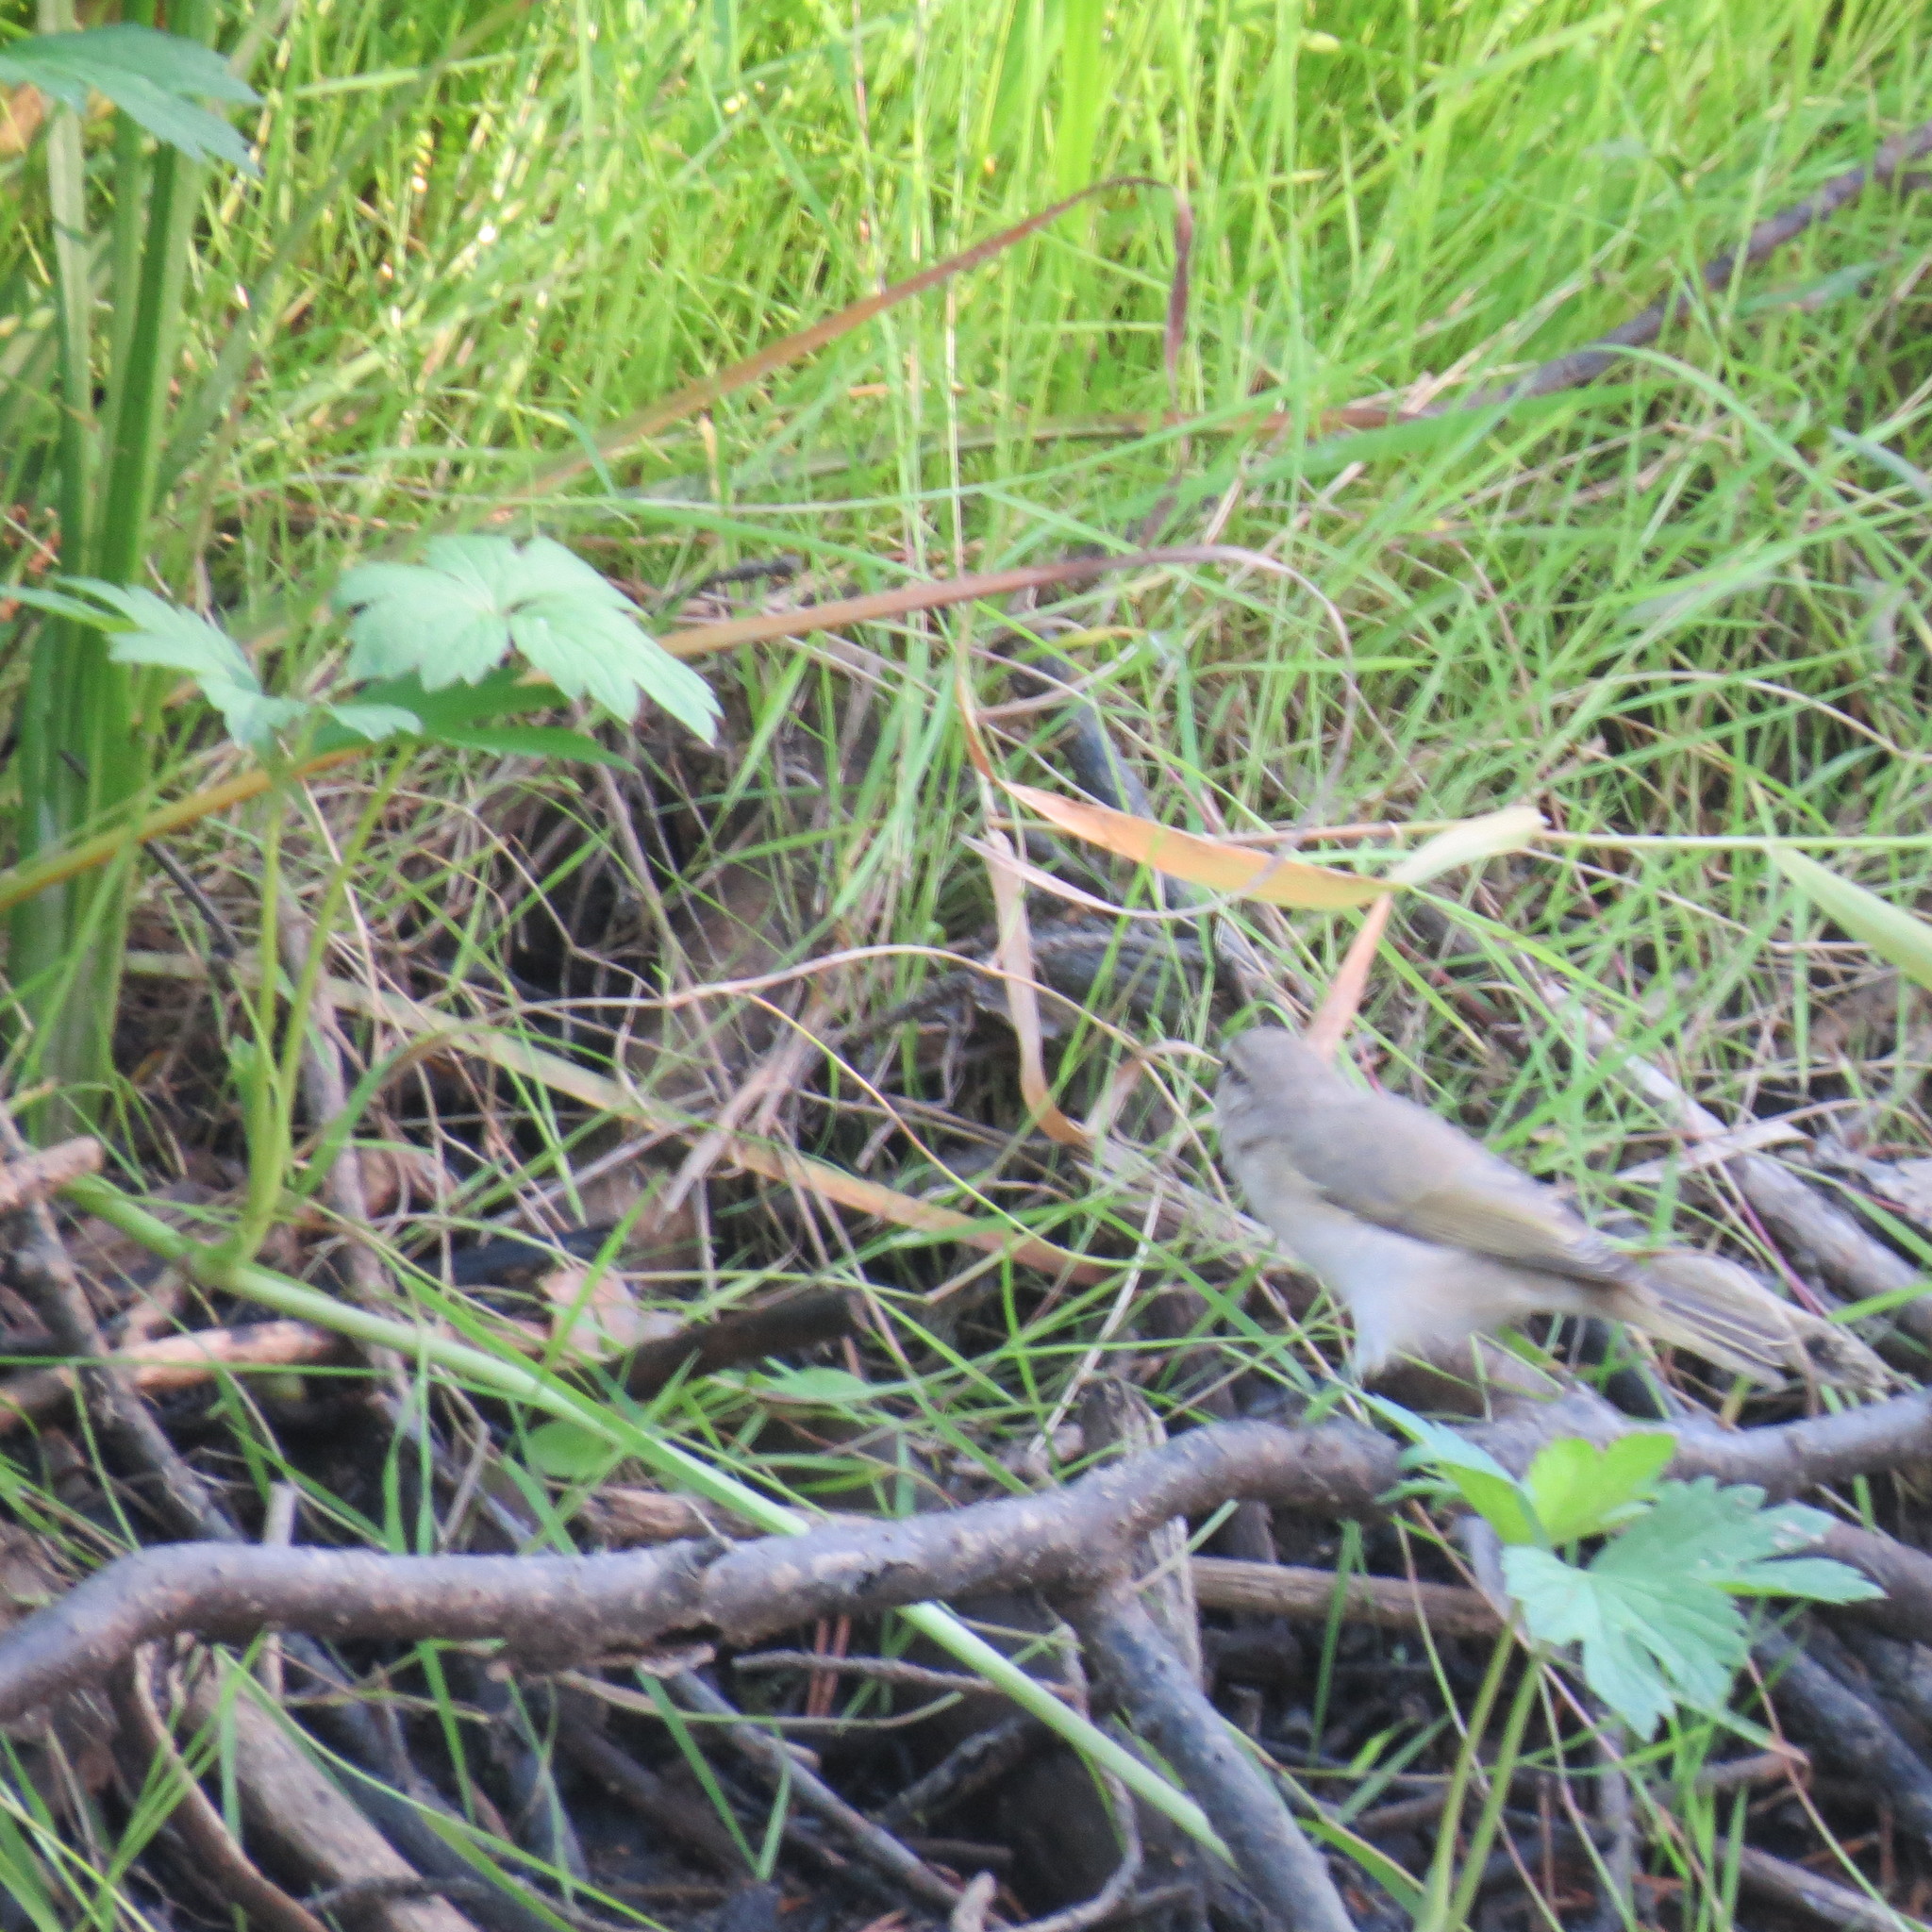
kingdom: Animalia
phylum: Chordata
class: Aves
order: Passeriformes
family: Phylloscopidae
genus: Phylloscopus
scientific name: Phylloscopus collybita
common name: Common chiffchaff
